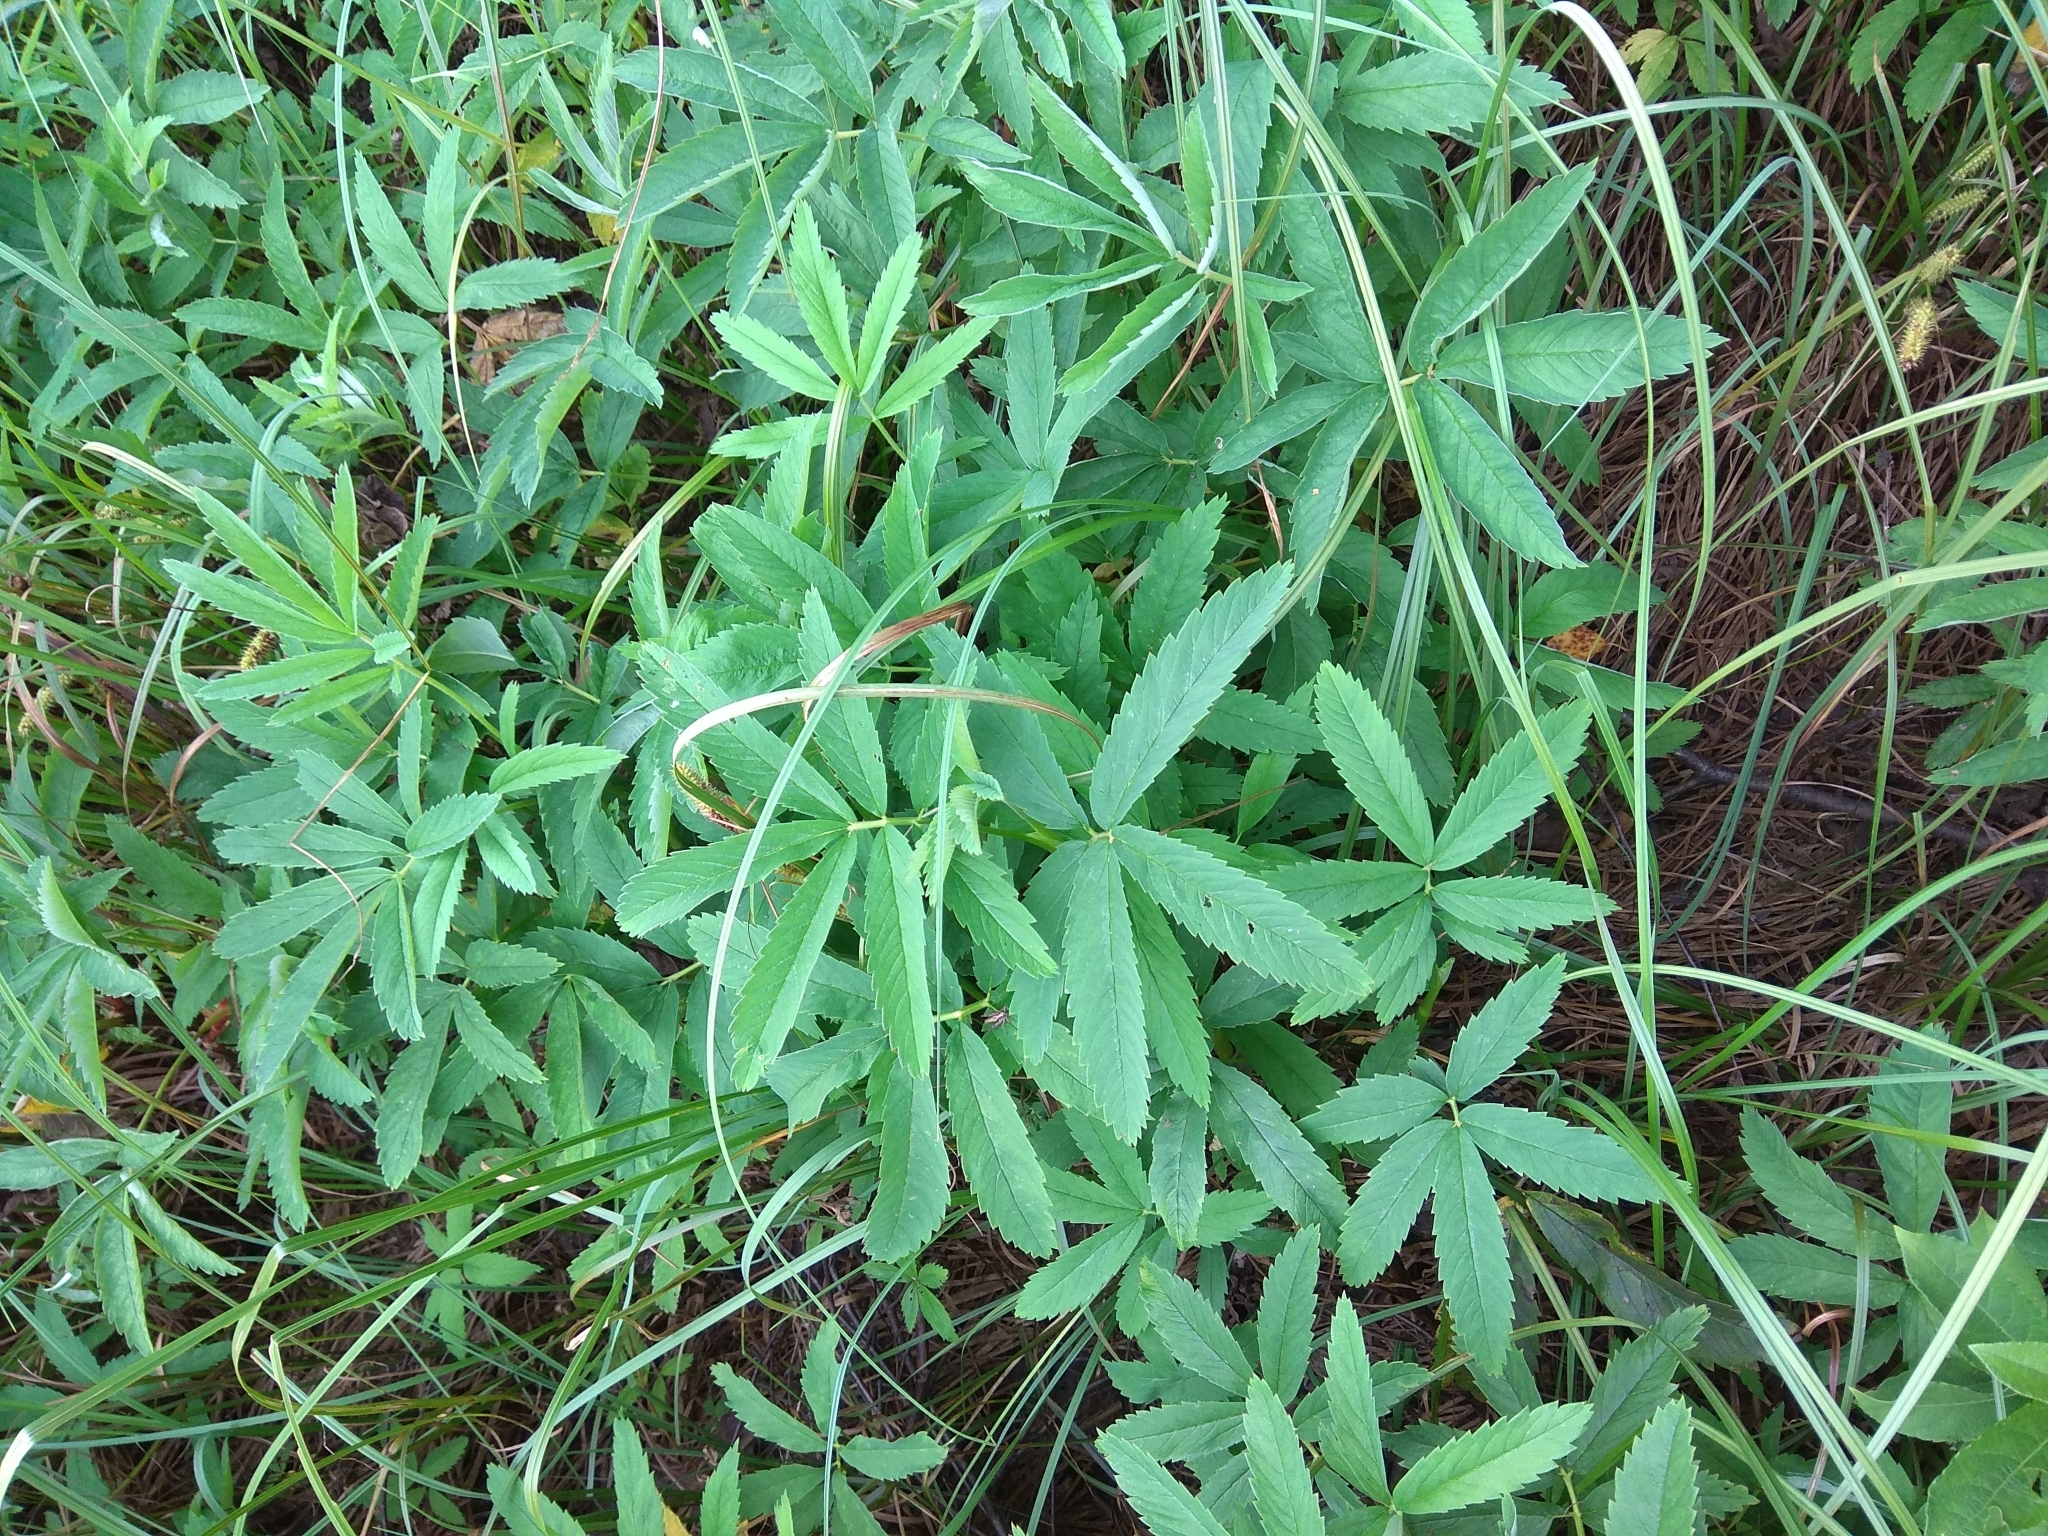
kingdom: Plantae
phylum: Tracheophyta
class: Magnoliopsida
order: Rosales
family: Rosaceae
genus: Comarum
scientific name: Comarum palustre
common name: Marsh cinquefoil
